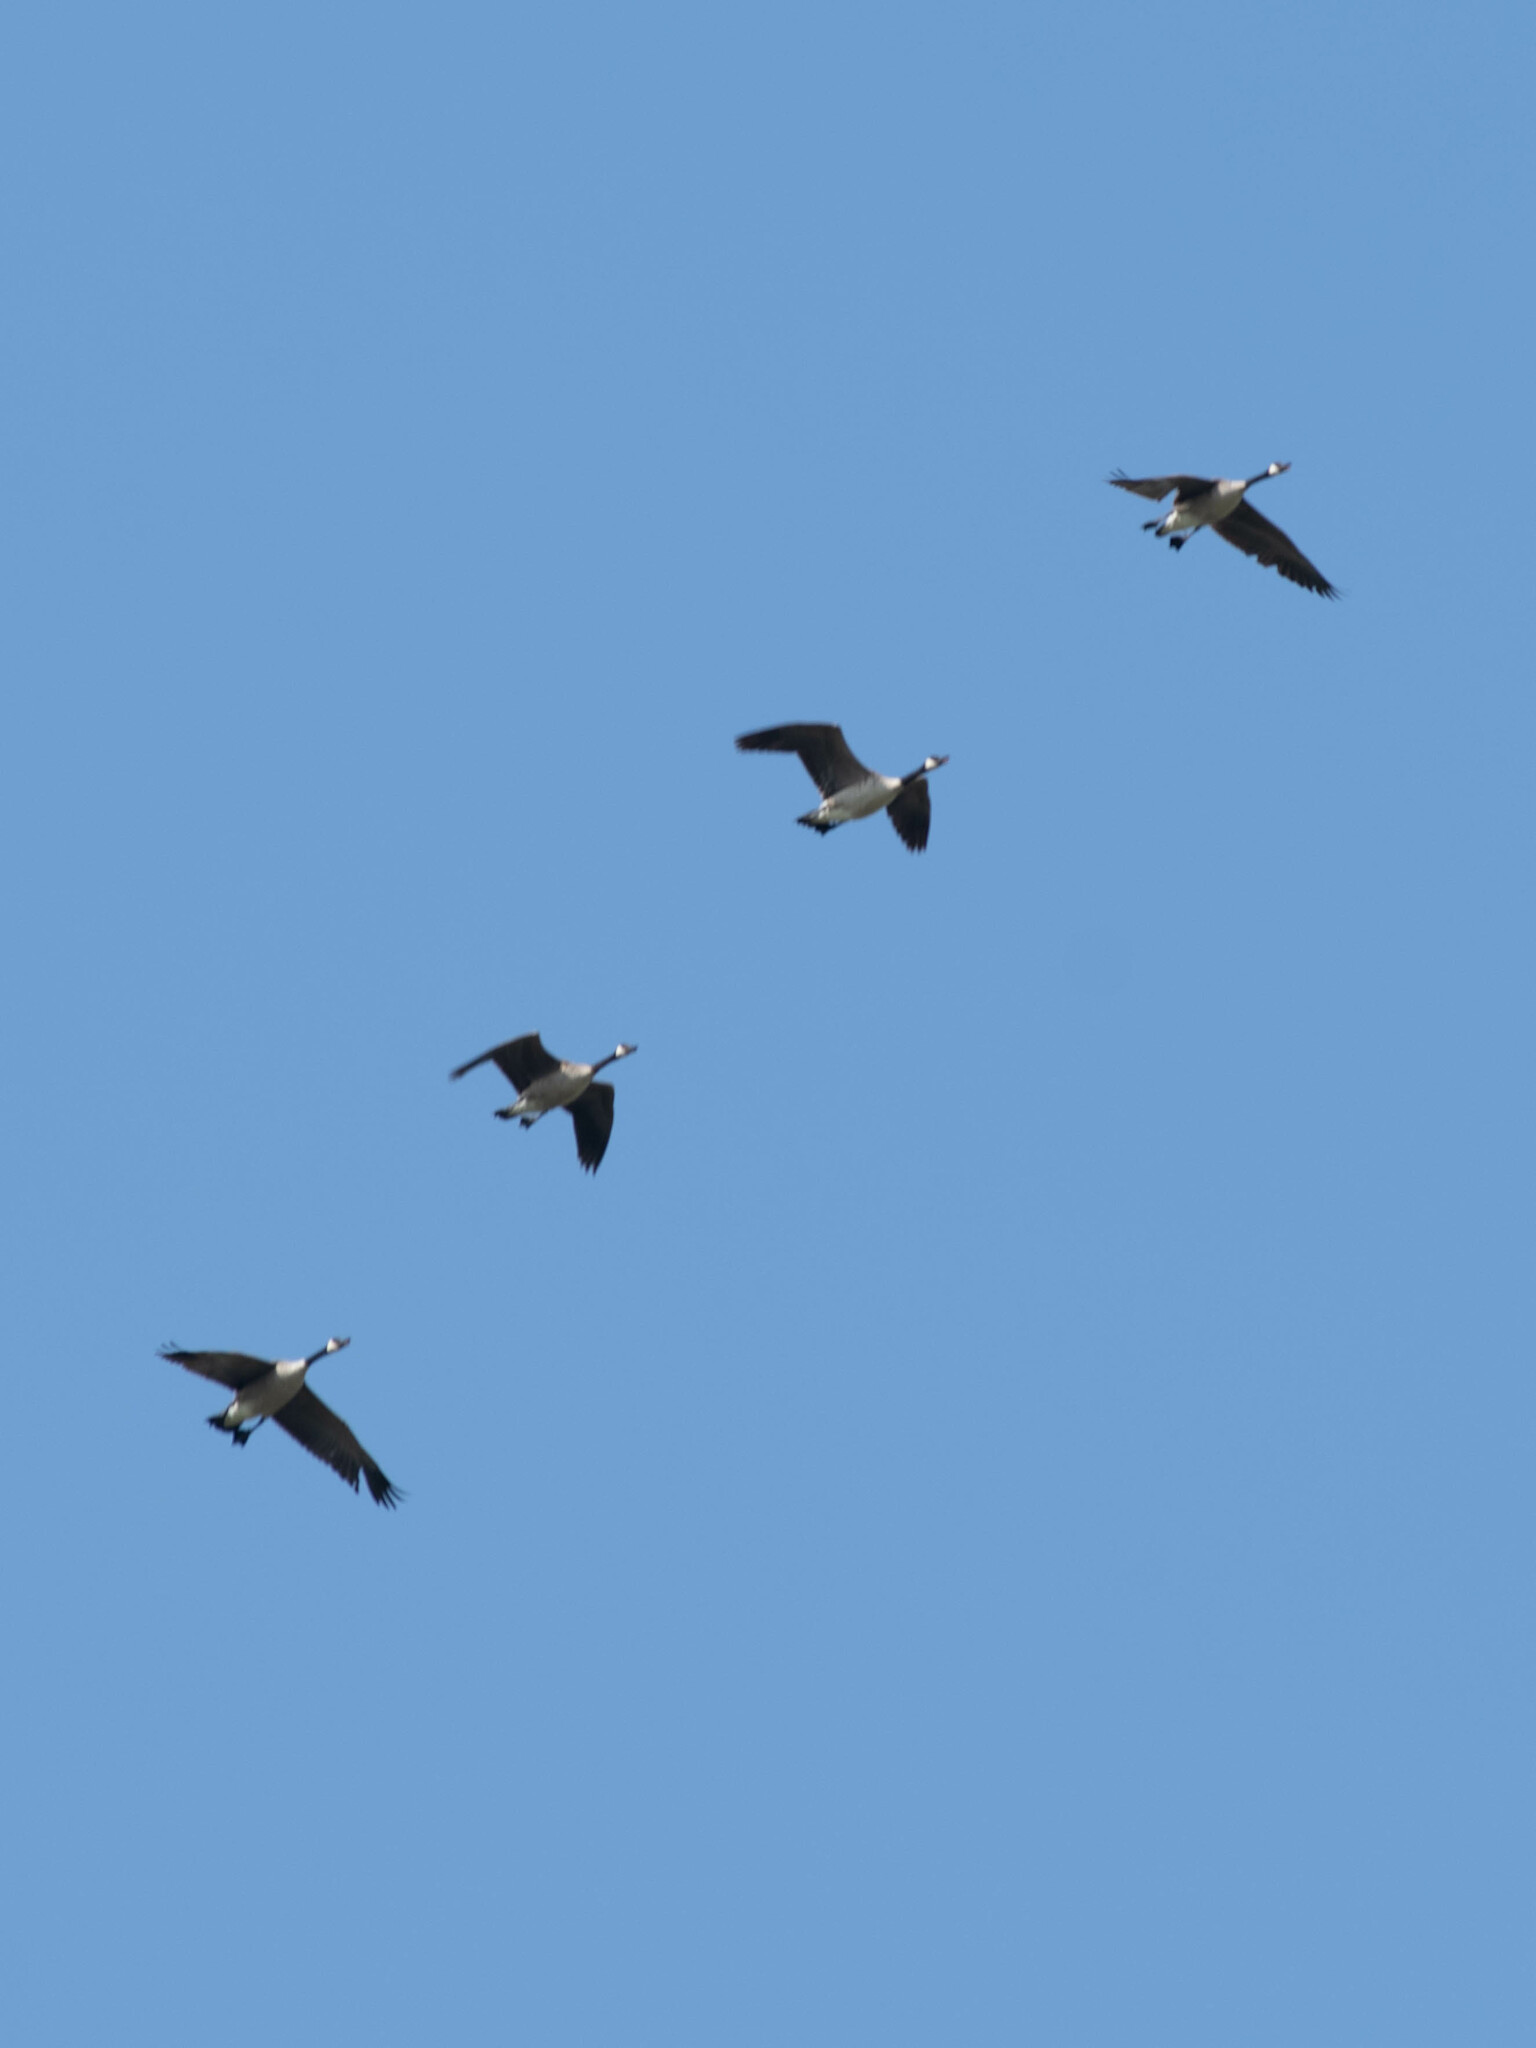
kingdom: Animalia
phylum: Chordata
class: Aves
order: Anseriformes
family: Anatidae
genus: Branta
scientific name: Branta canadensis
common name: Canada goose
